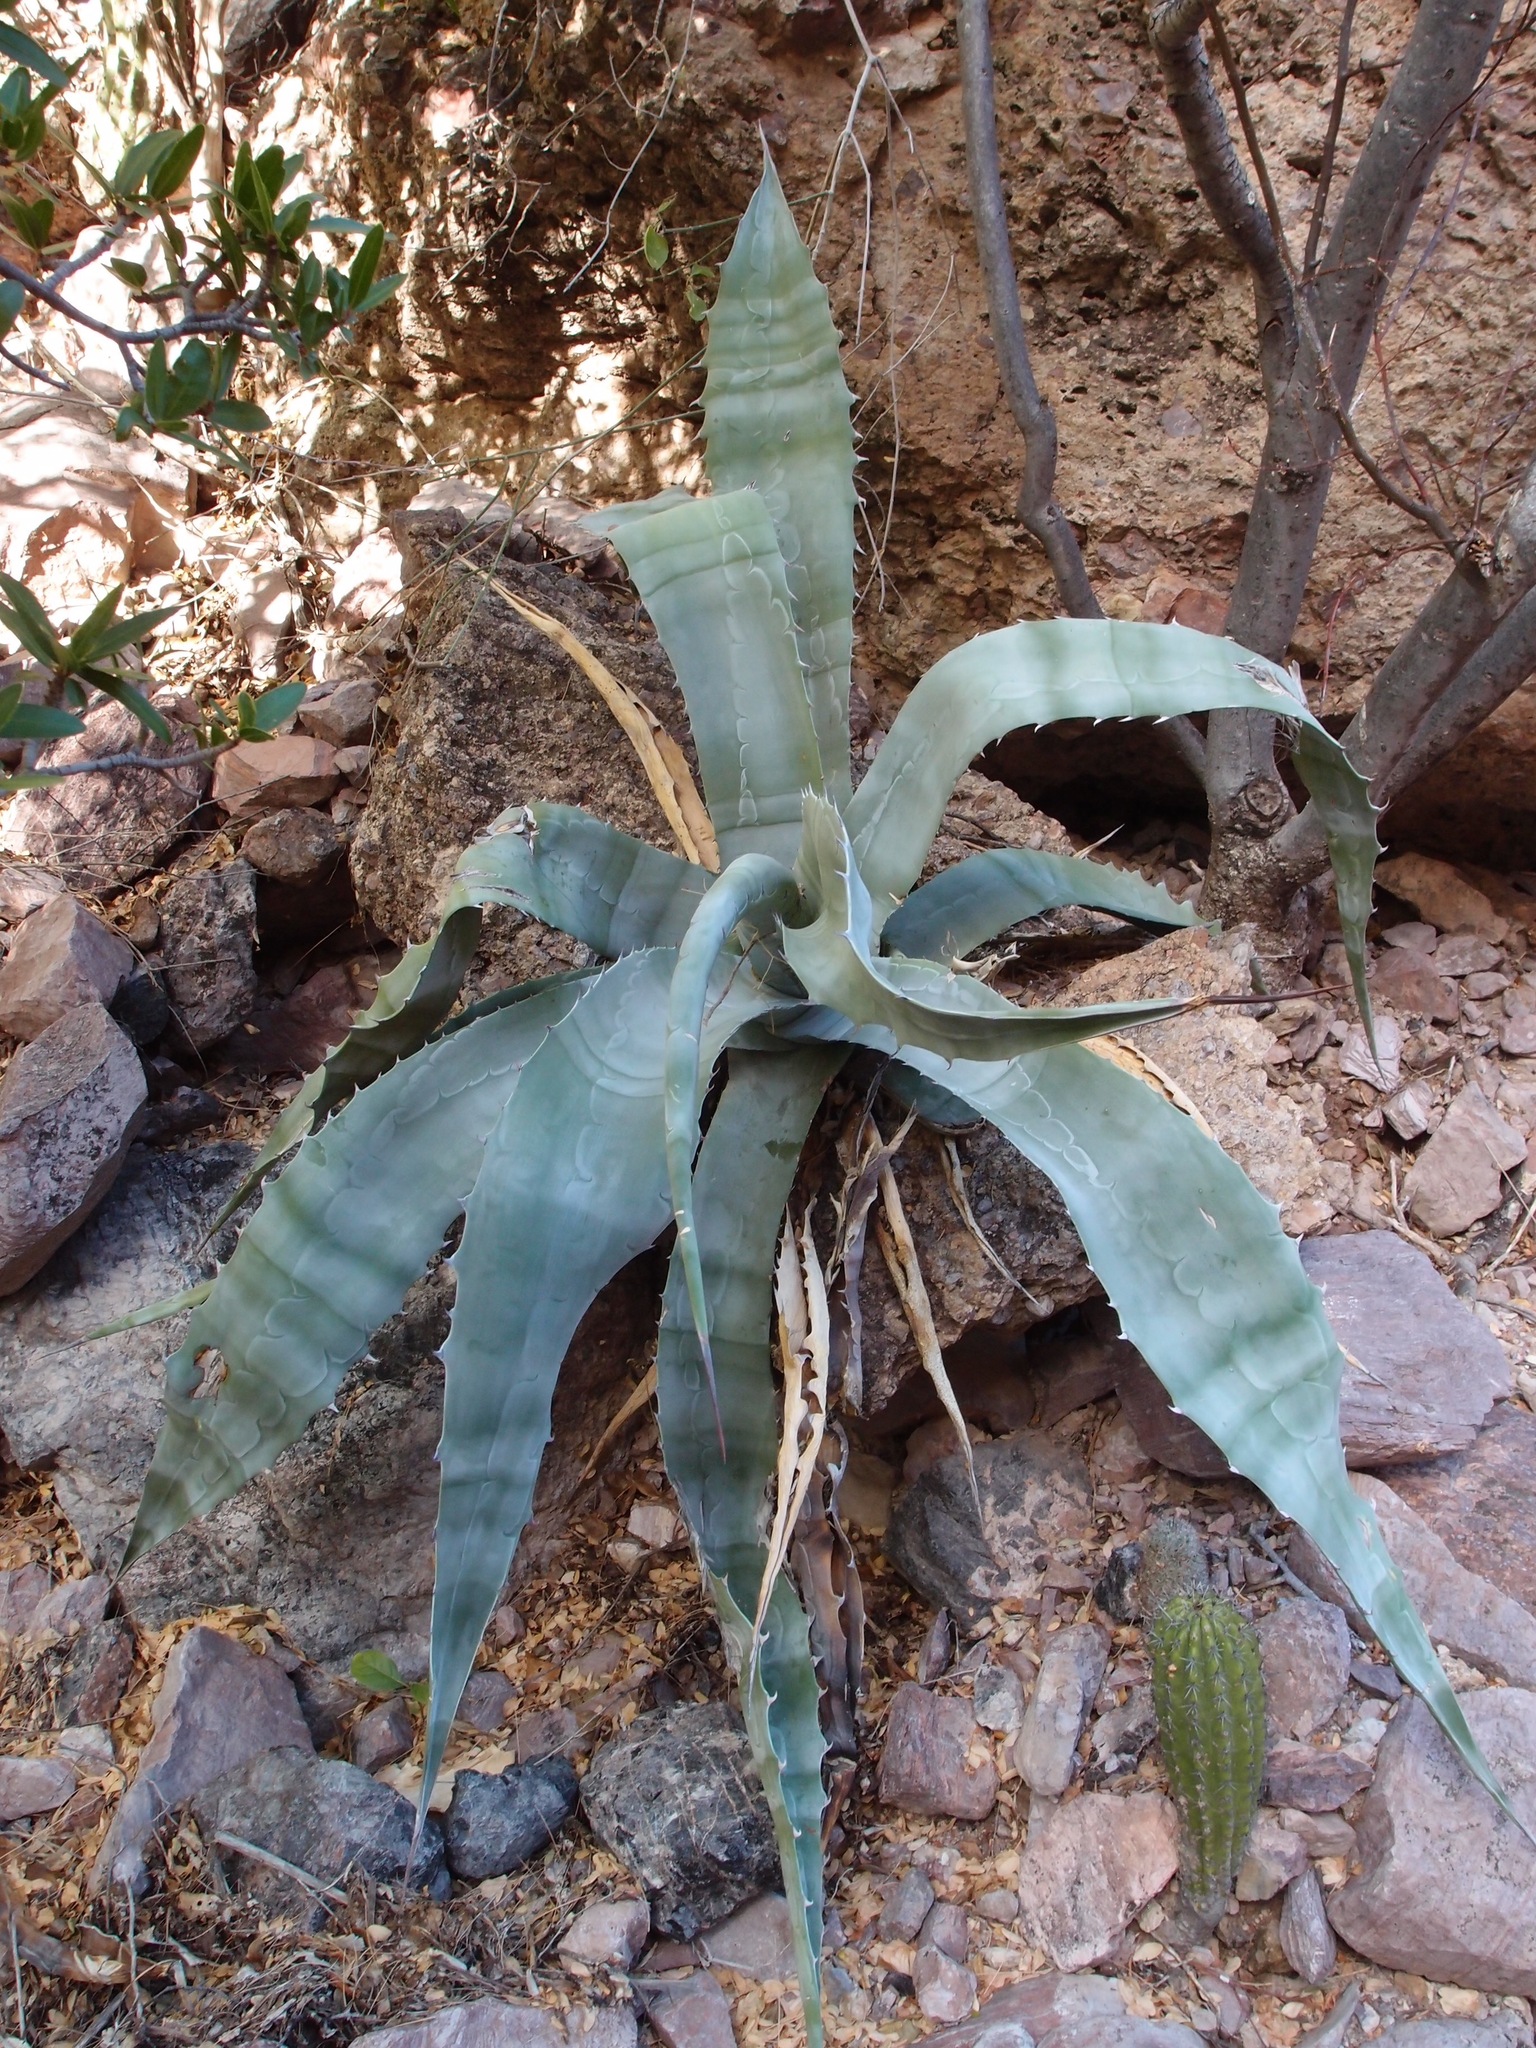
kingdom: Plantae
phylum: Tracheophyta
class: Liliopsida
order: Asparagales
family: Asparagaceae
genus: Agave
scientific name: Agave colorata
